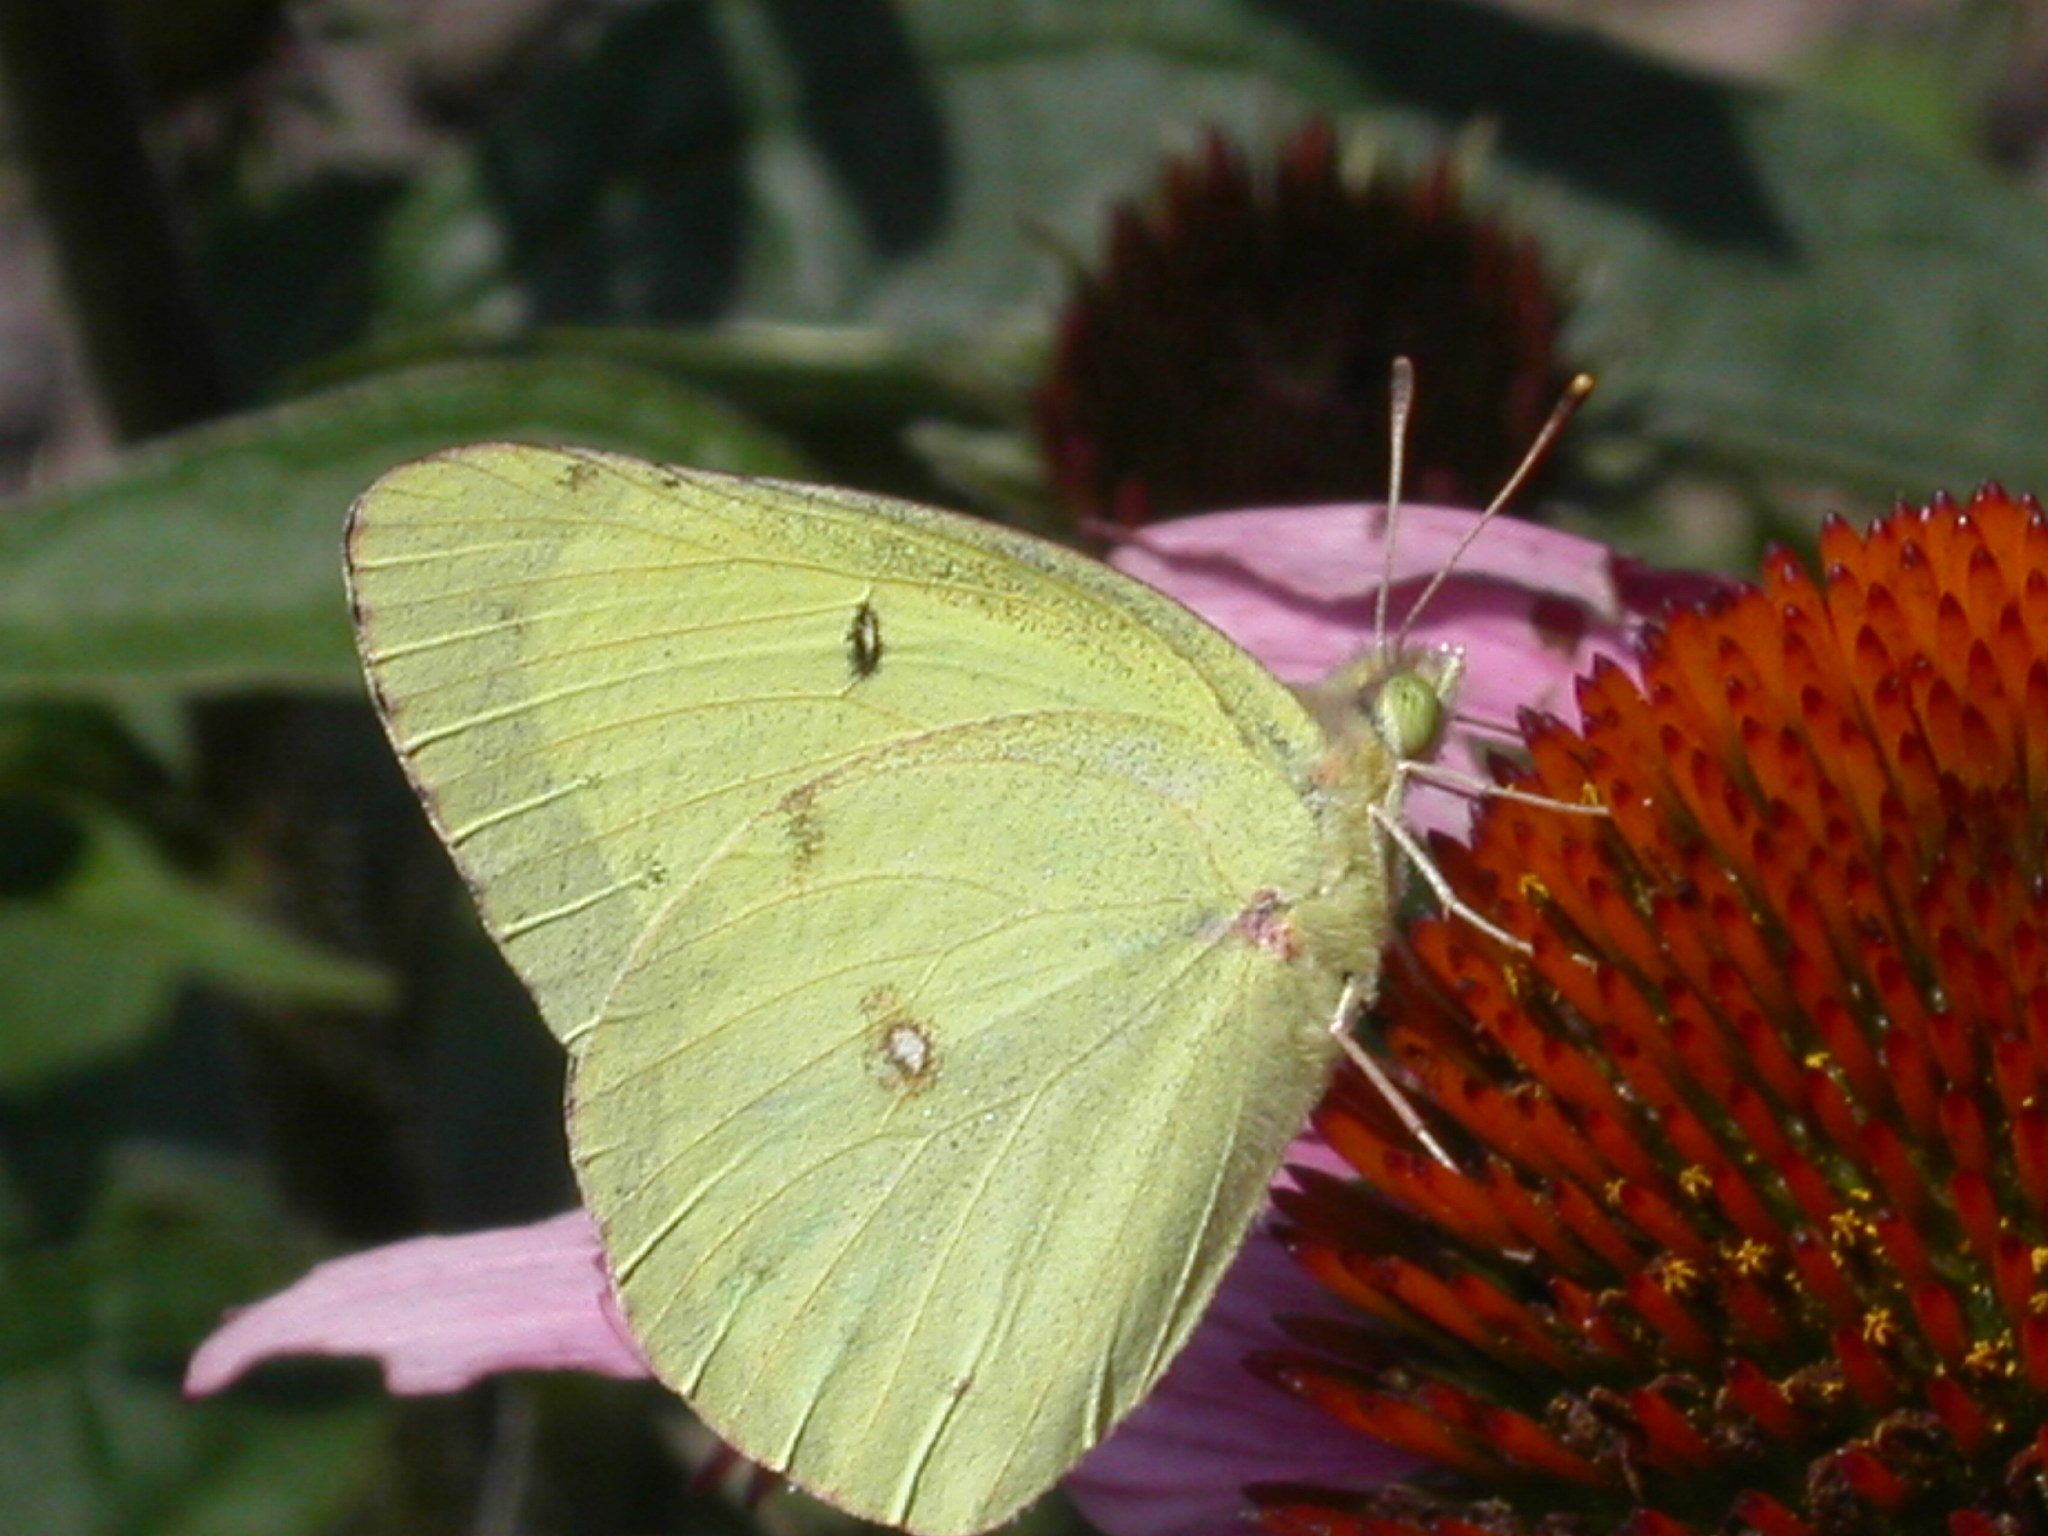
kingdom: Animalia
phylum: Arthropoda
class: Insecta
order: Lepidoptera
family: Pieridae
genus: Colias
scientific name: Colias philodice
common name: Clouded sulphur
